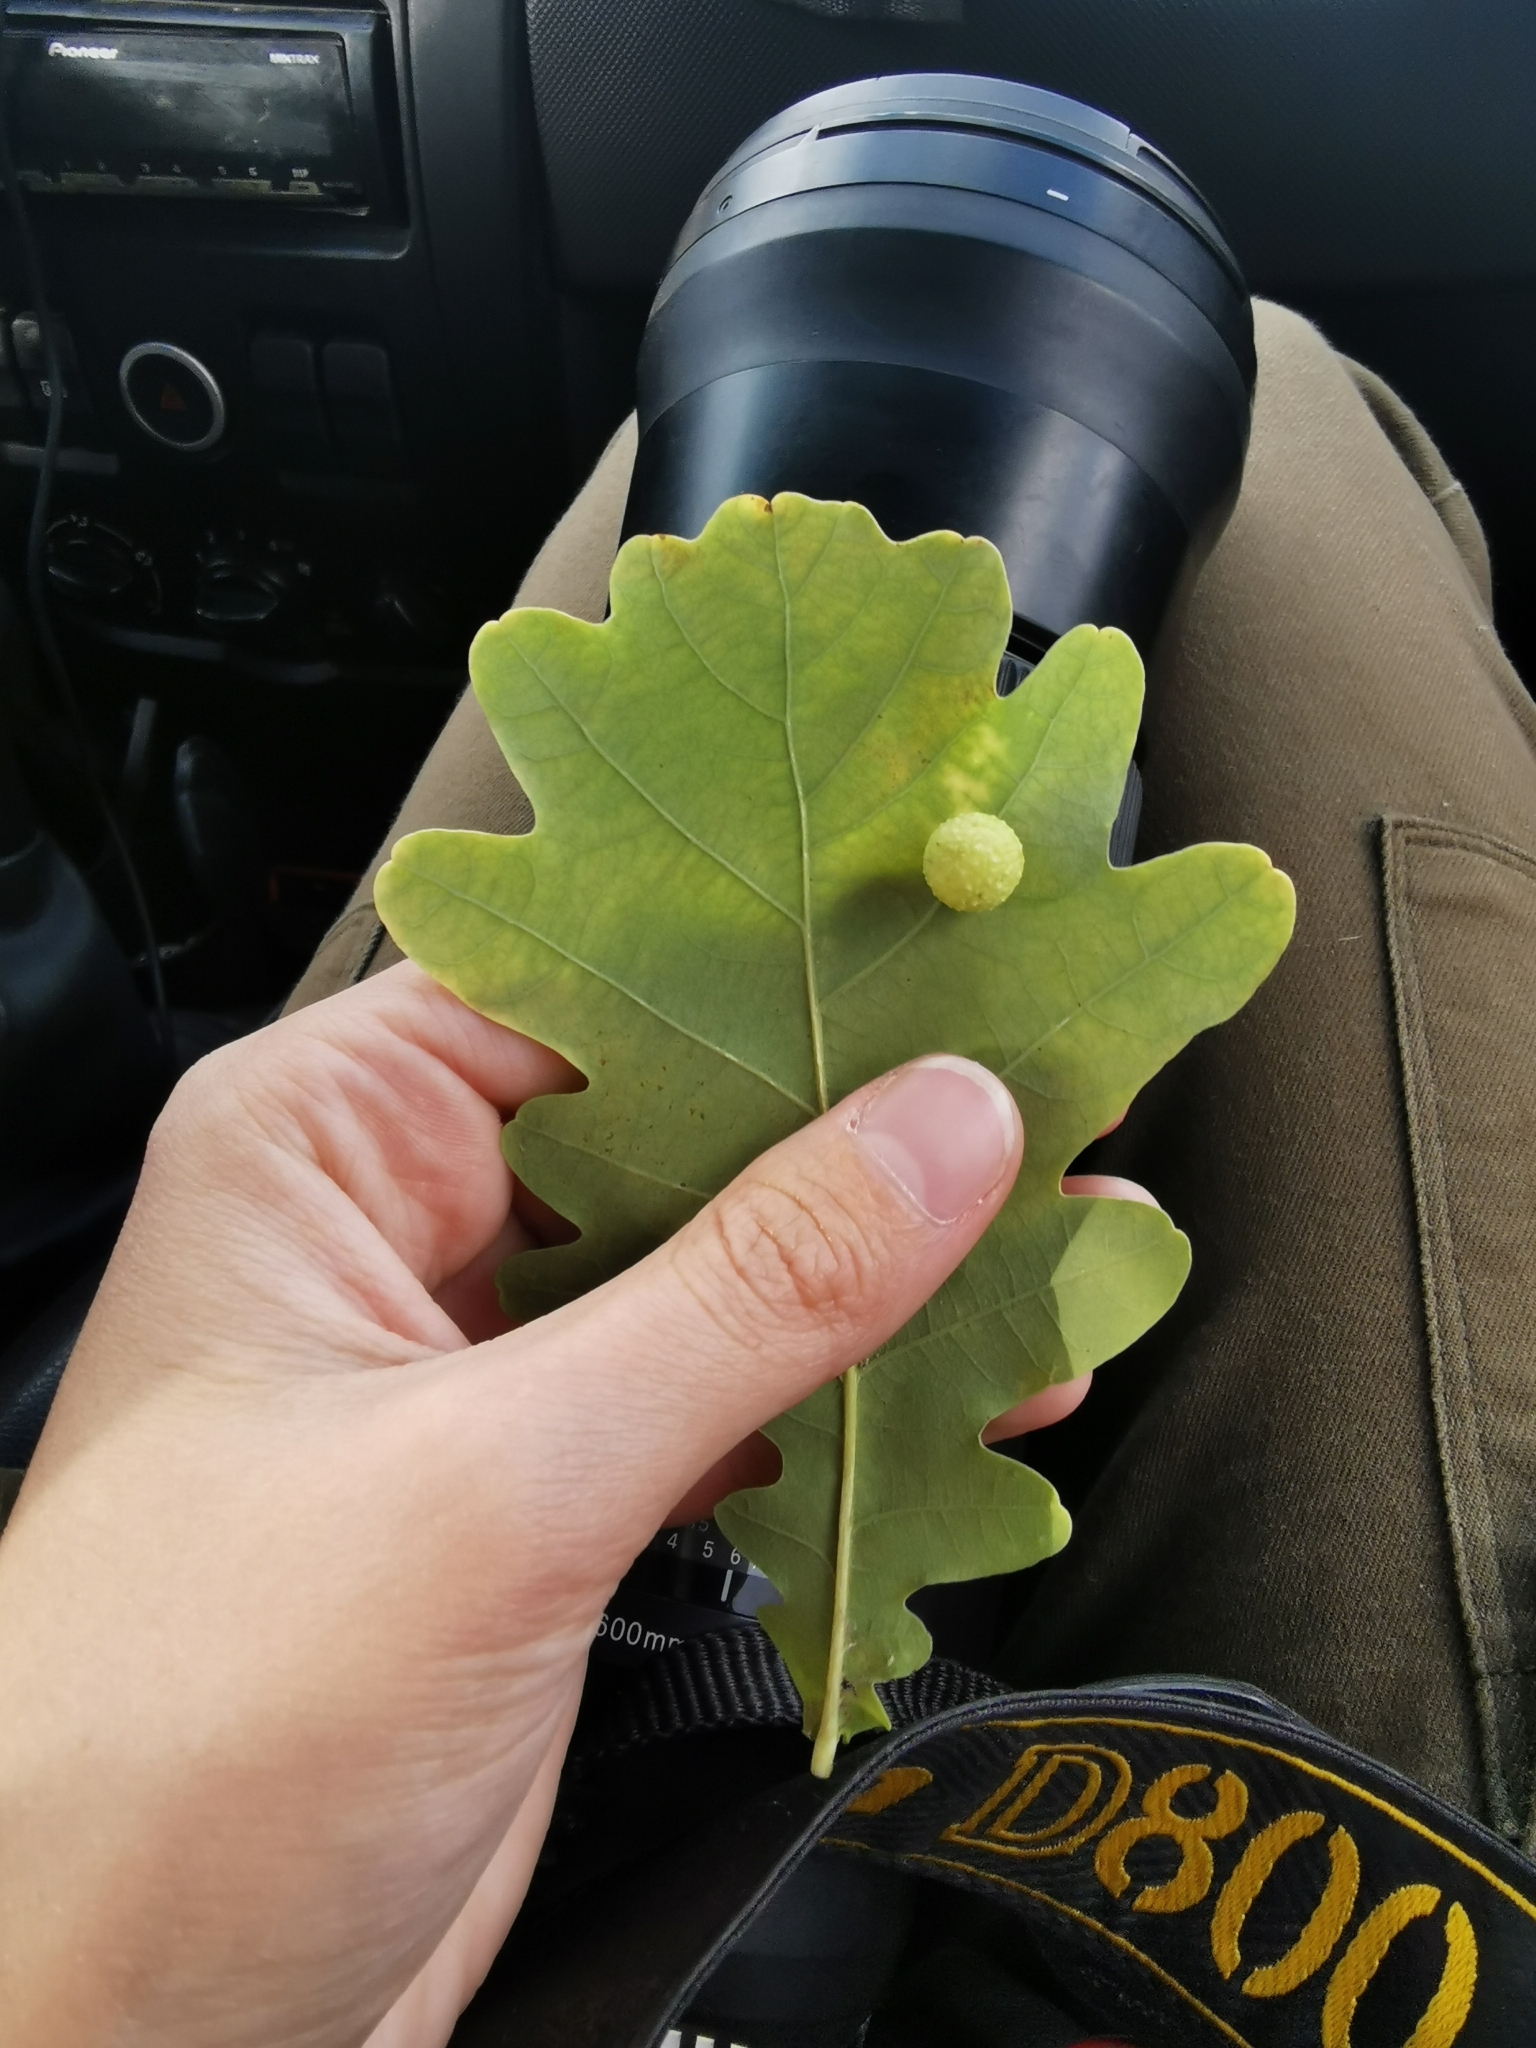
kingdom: Animalia
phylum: Arthropoda
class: Insecta
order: Hymenoptera
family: Cynipidae
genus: Cynips
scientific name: Cynips quercusfolii
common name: Cherry gall
